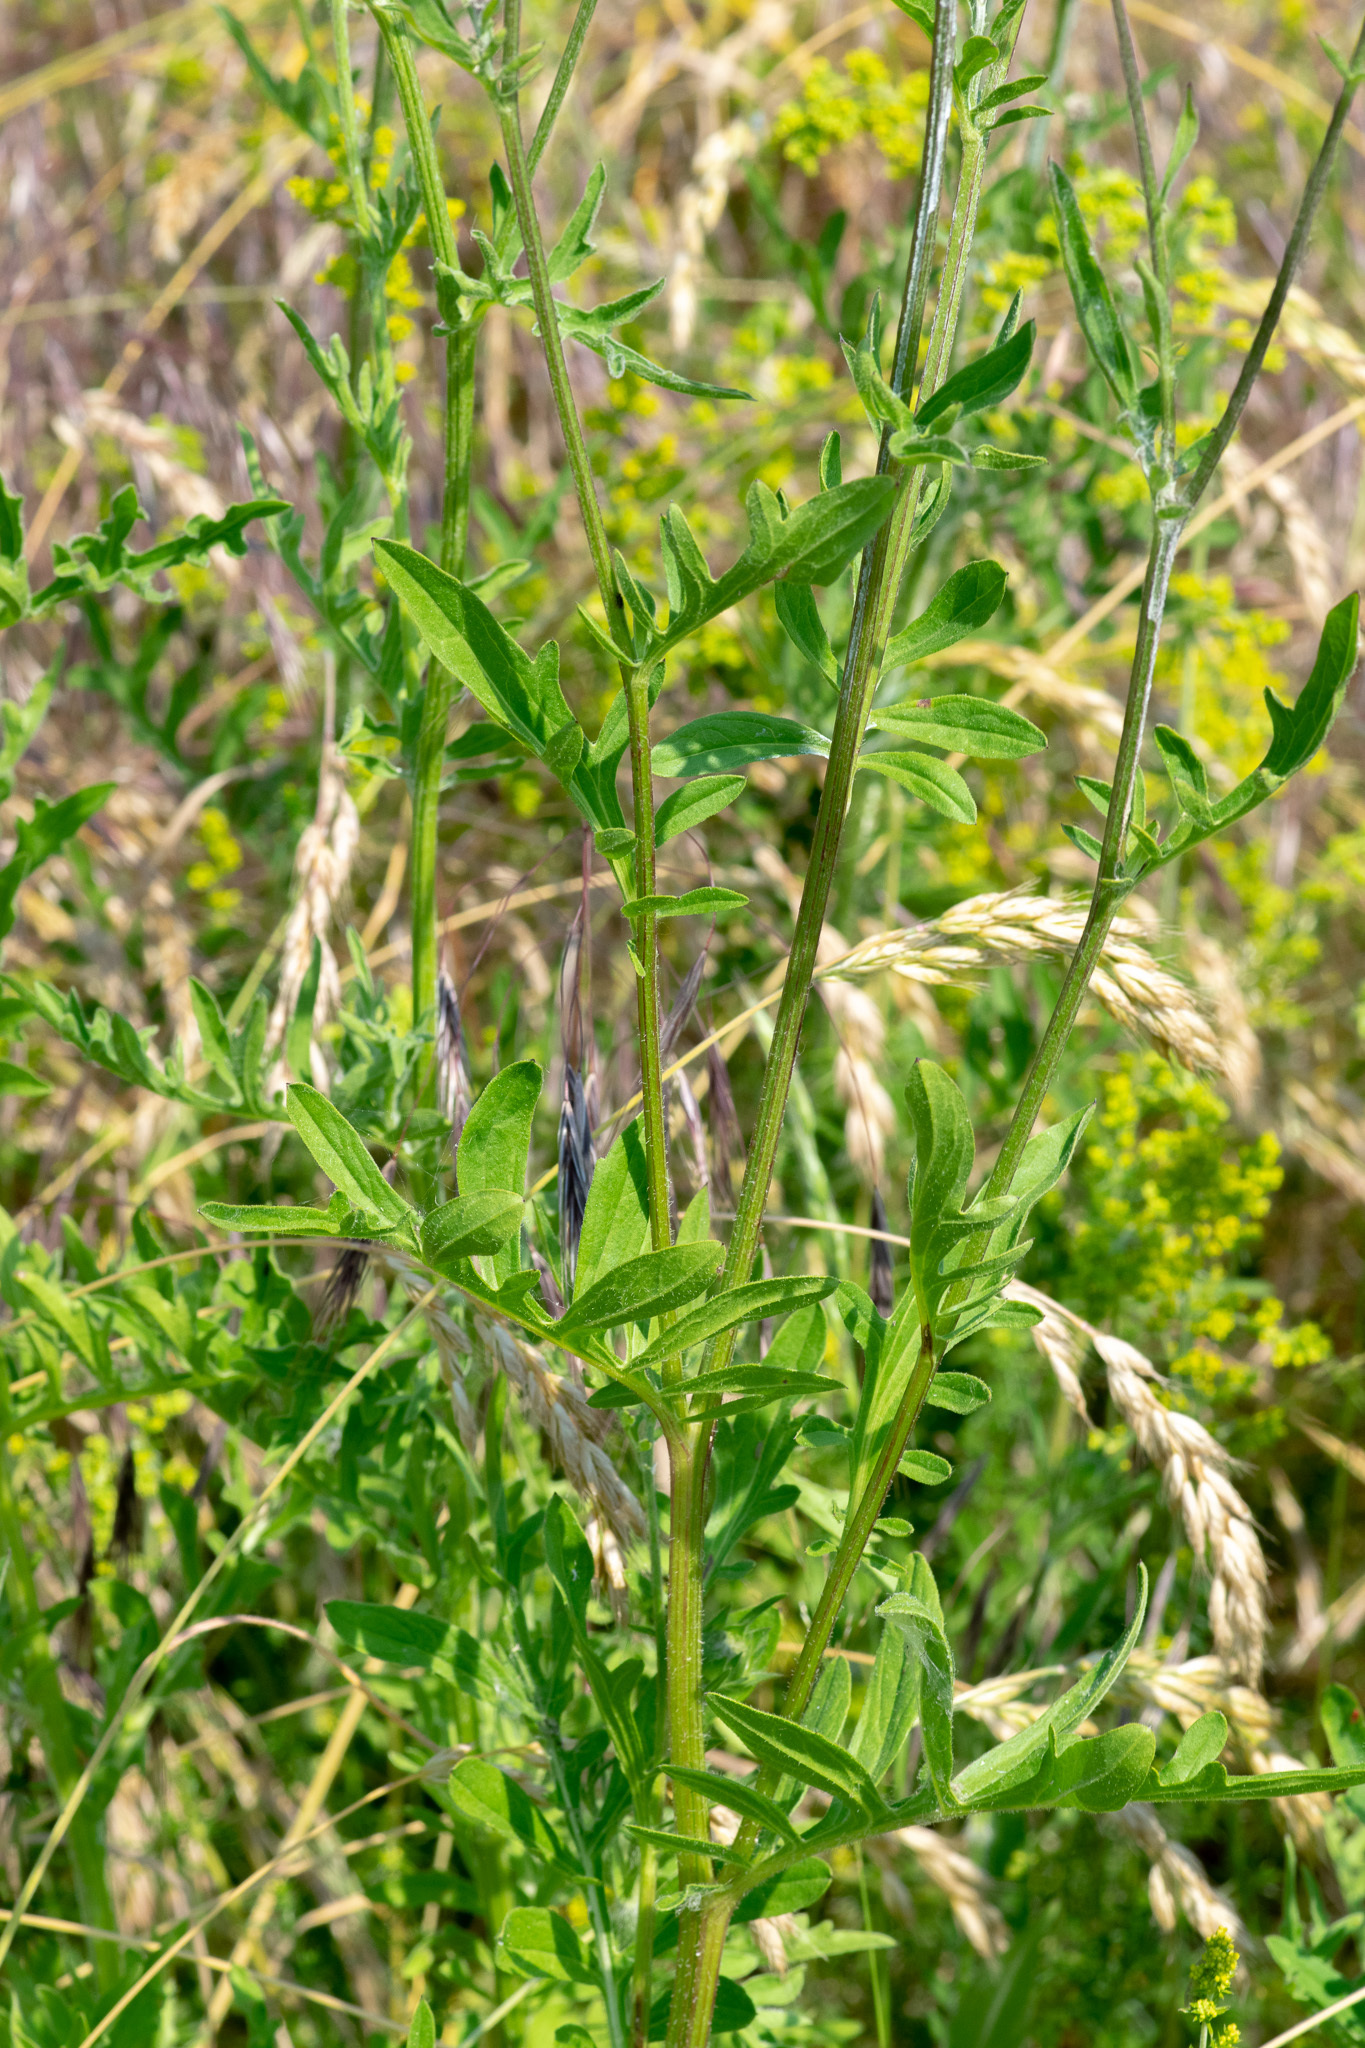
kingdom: Plantae
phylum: Tracheophyta
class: Magnoliopsida
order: Asterales
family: Asteraceae
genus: Centaurea
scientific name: Centaurea scabiosa
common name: Greater knapweed
